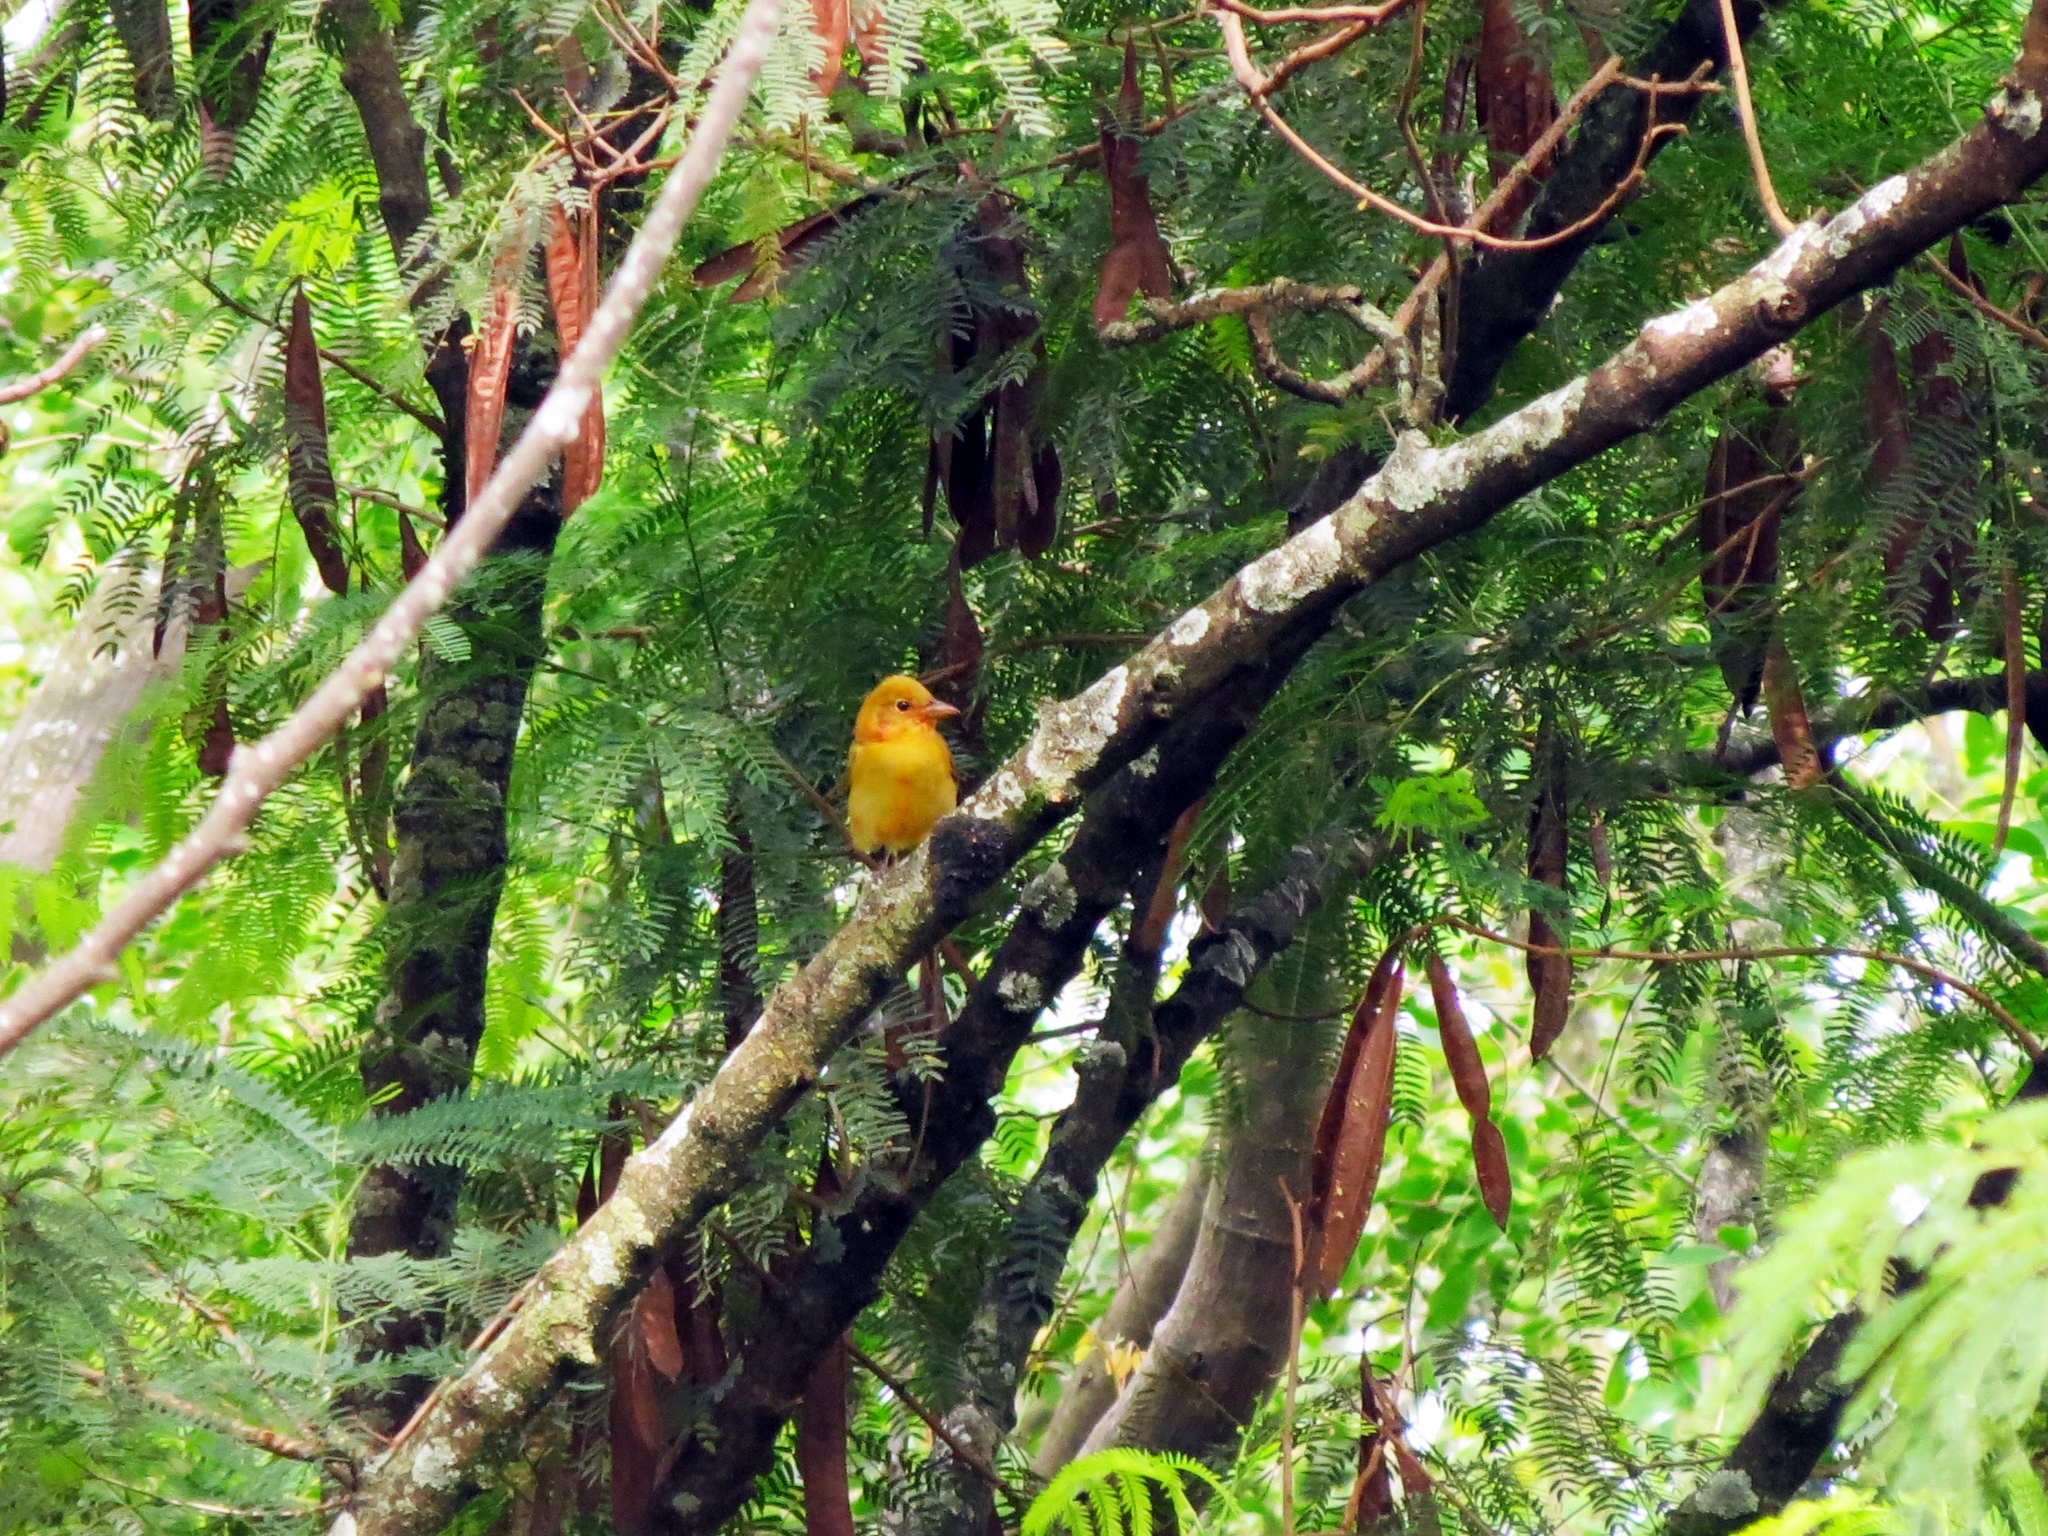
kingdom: Animalia
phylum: Chordata
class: Aves
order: Passeriformes
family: Cardinalidae
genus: Piranga
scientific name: Piranga rubra
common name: Summer tanager
